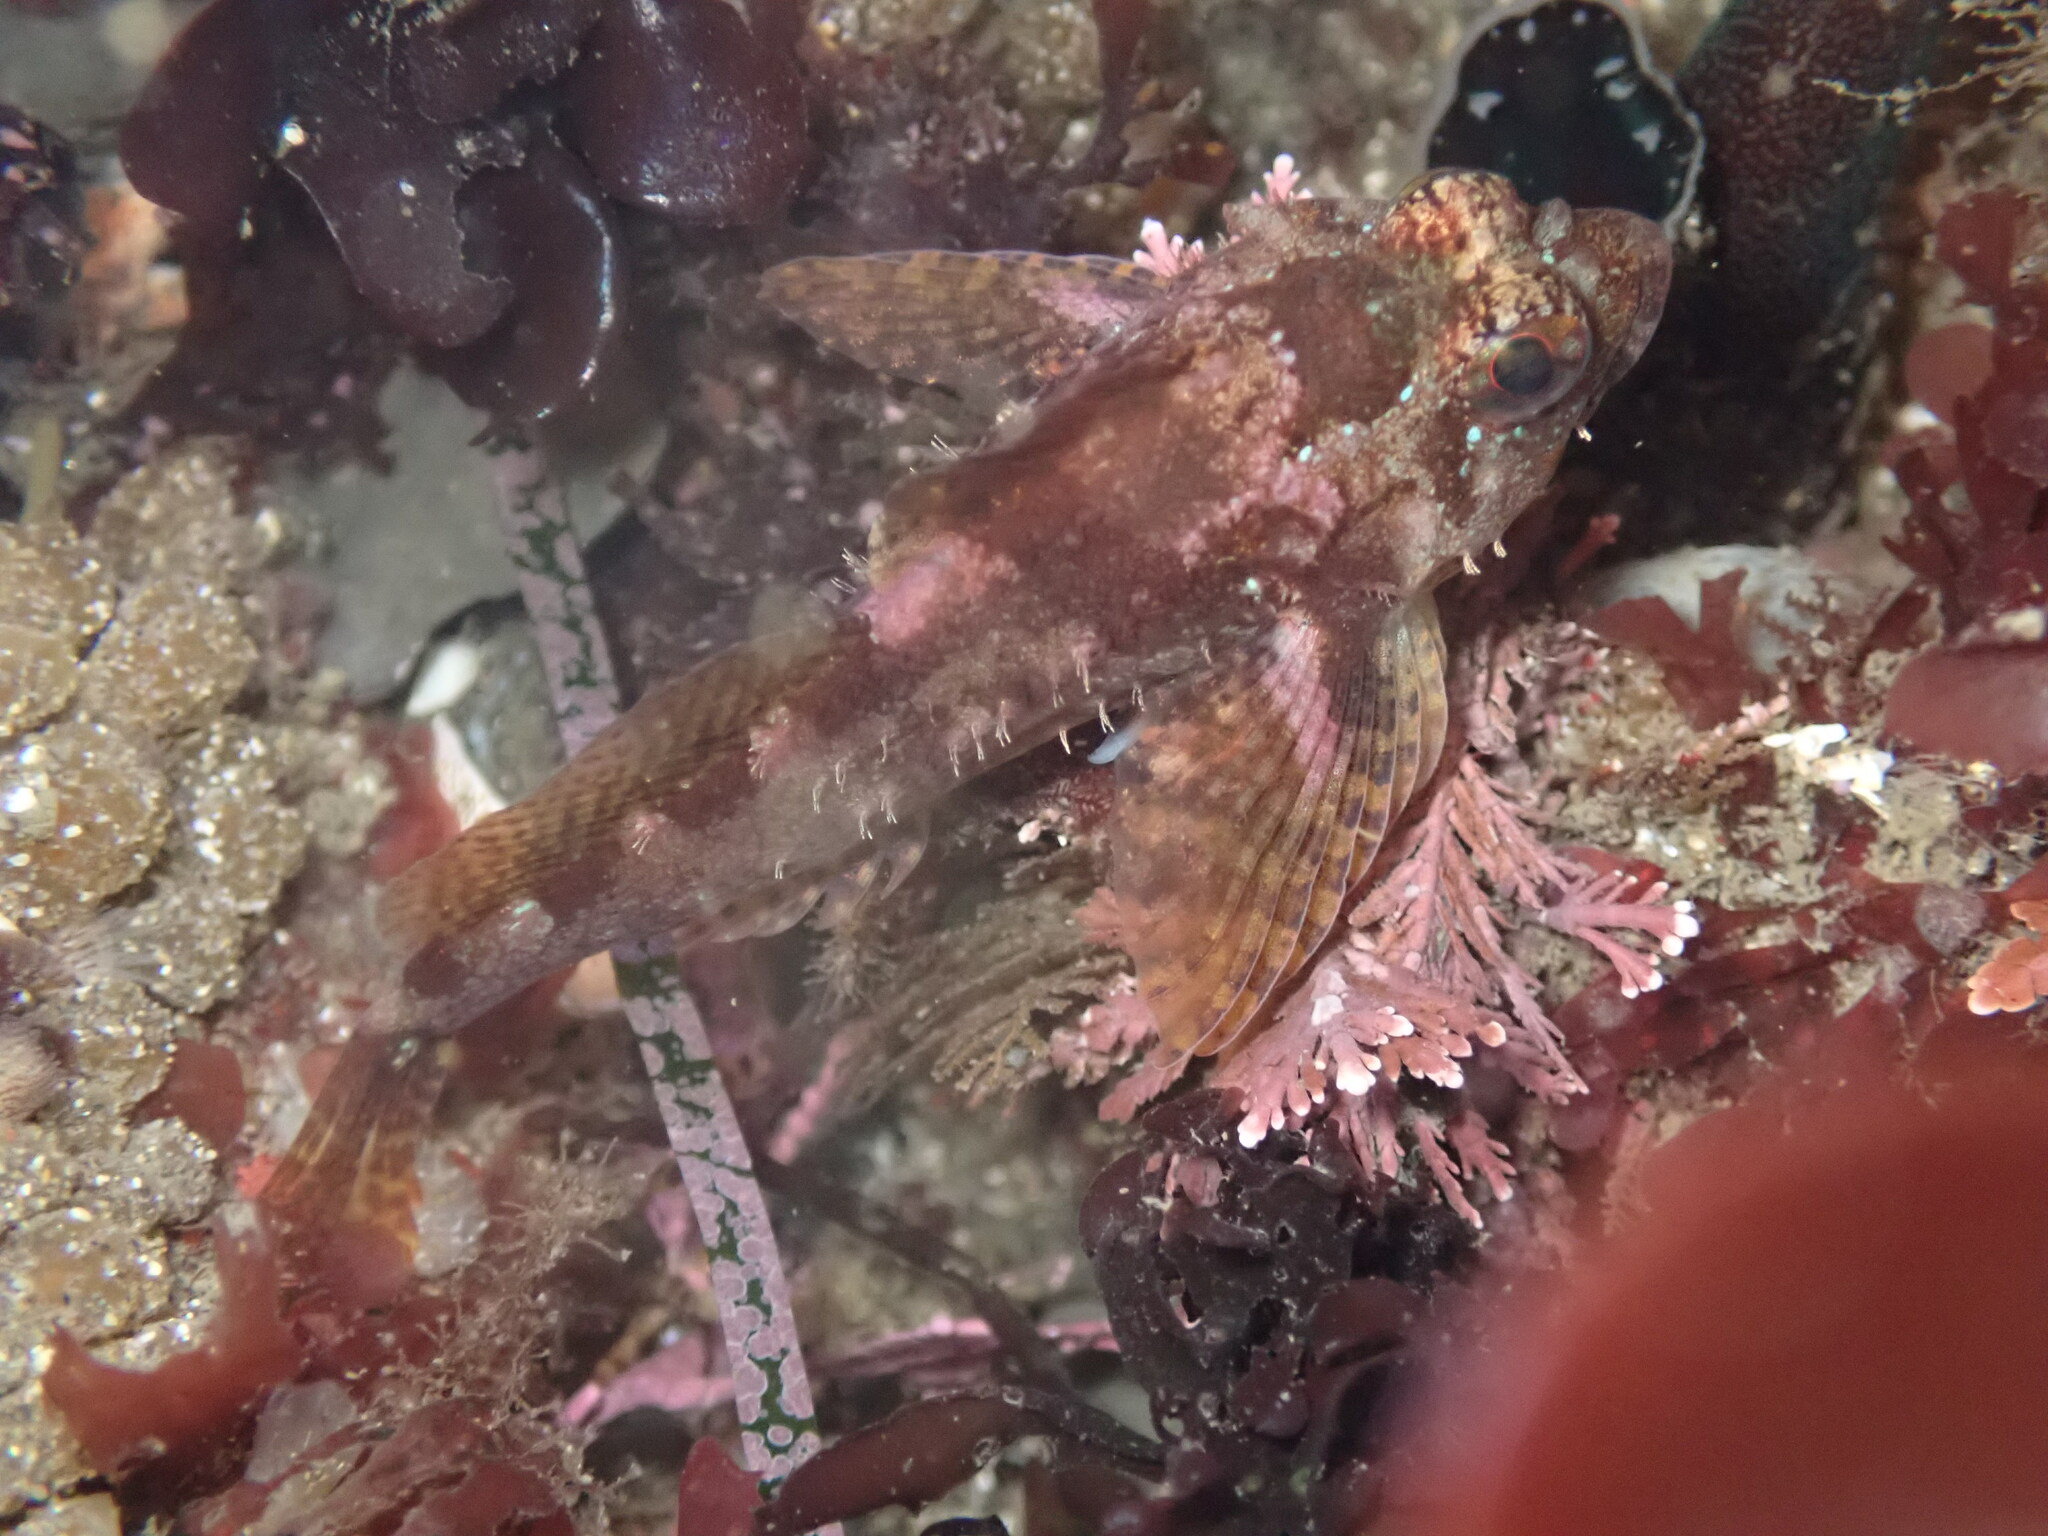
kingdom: Animalia
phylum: Chordata
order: Scorpaeniformes
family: Cottidae
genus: Oligocottus
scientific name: Oligocottus rubellio
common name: Rosy sculpin
